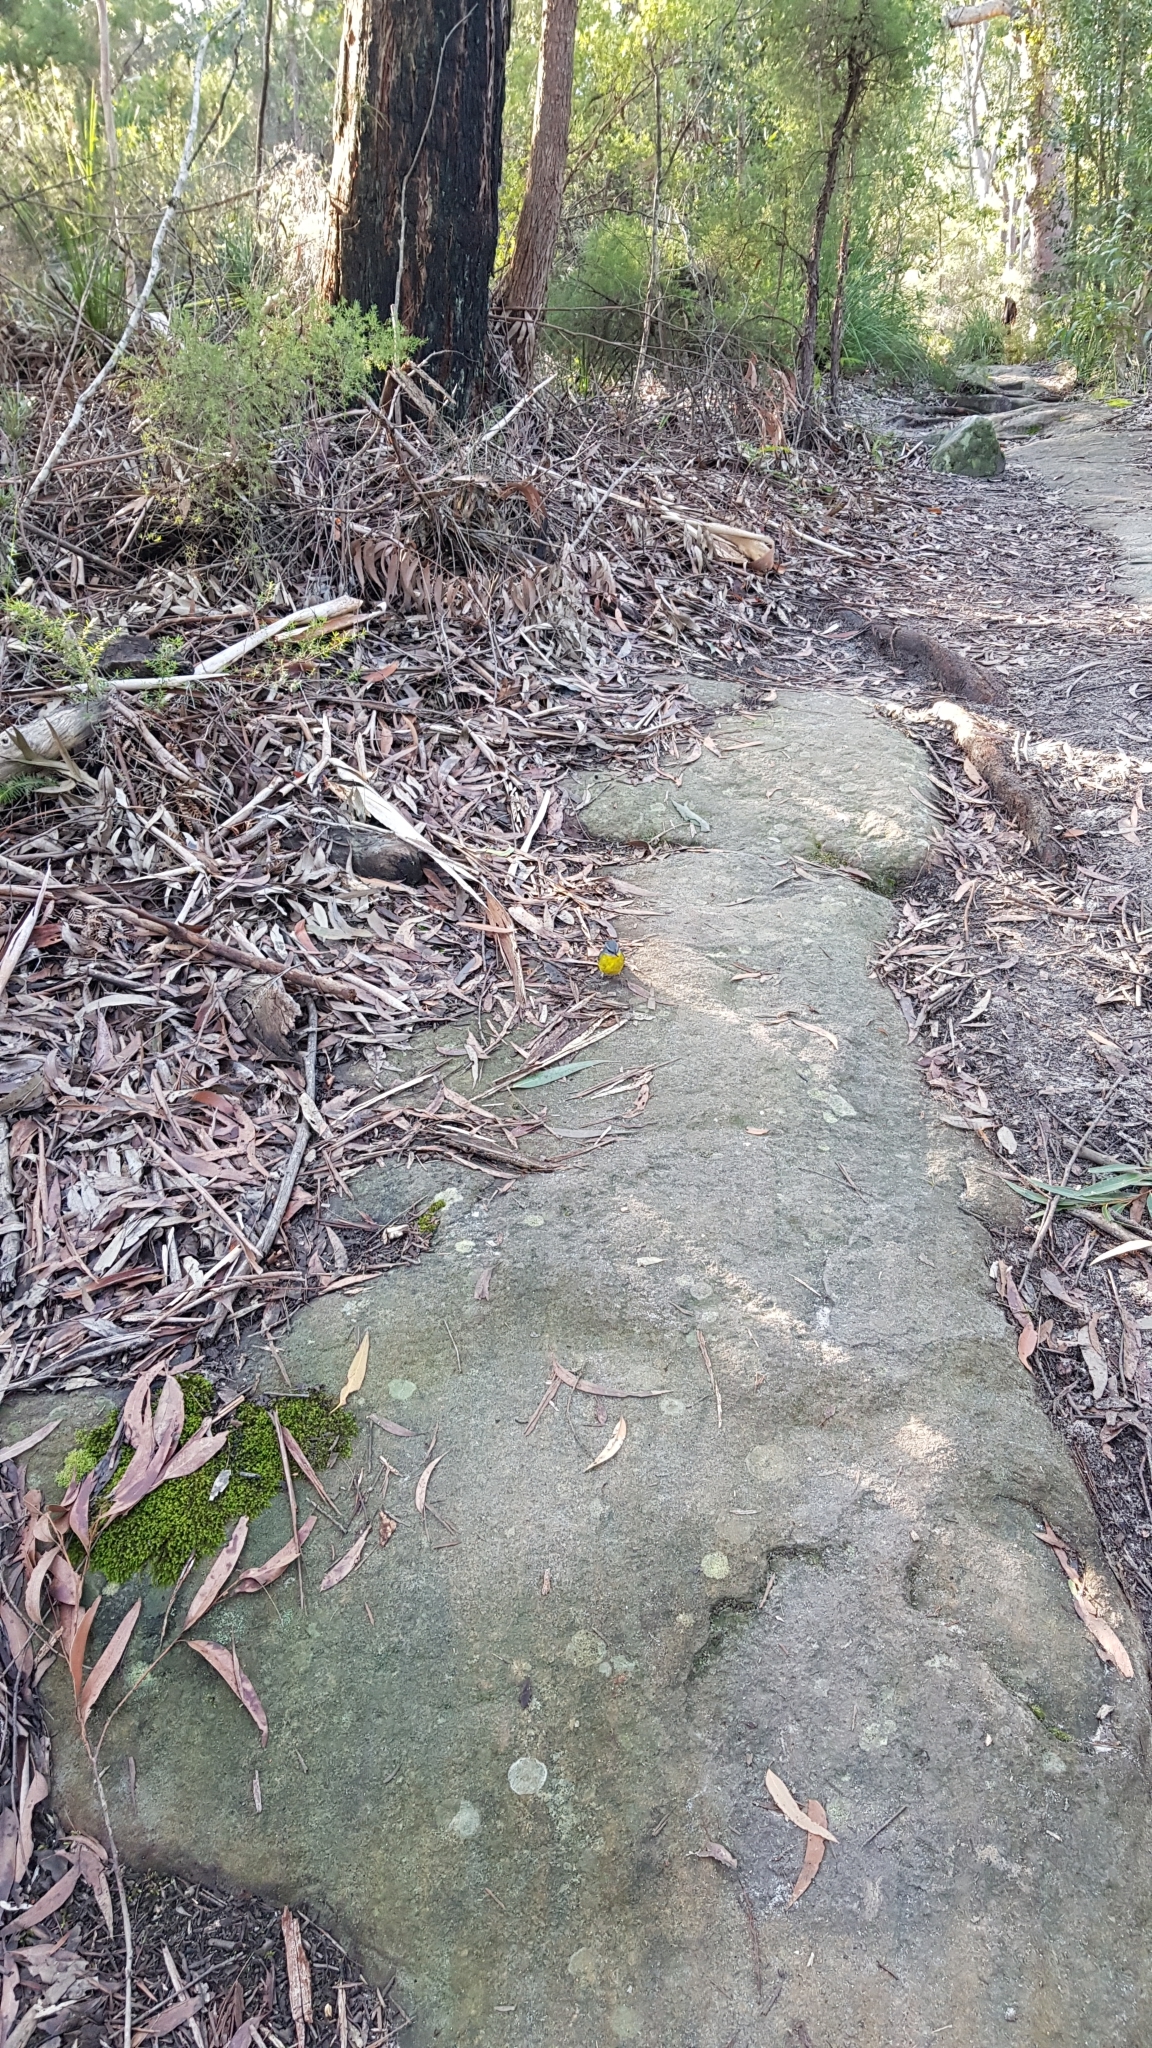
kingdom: Animalia
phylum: Chordata
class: Aves
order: Passeriformes
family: Petroicidae
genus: Eopsaltria
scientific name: Eopsaltria australis
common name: Eastern yellow robin
